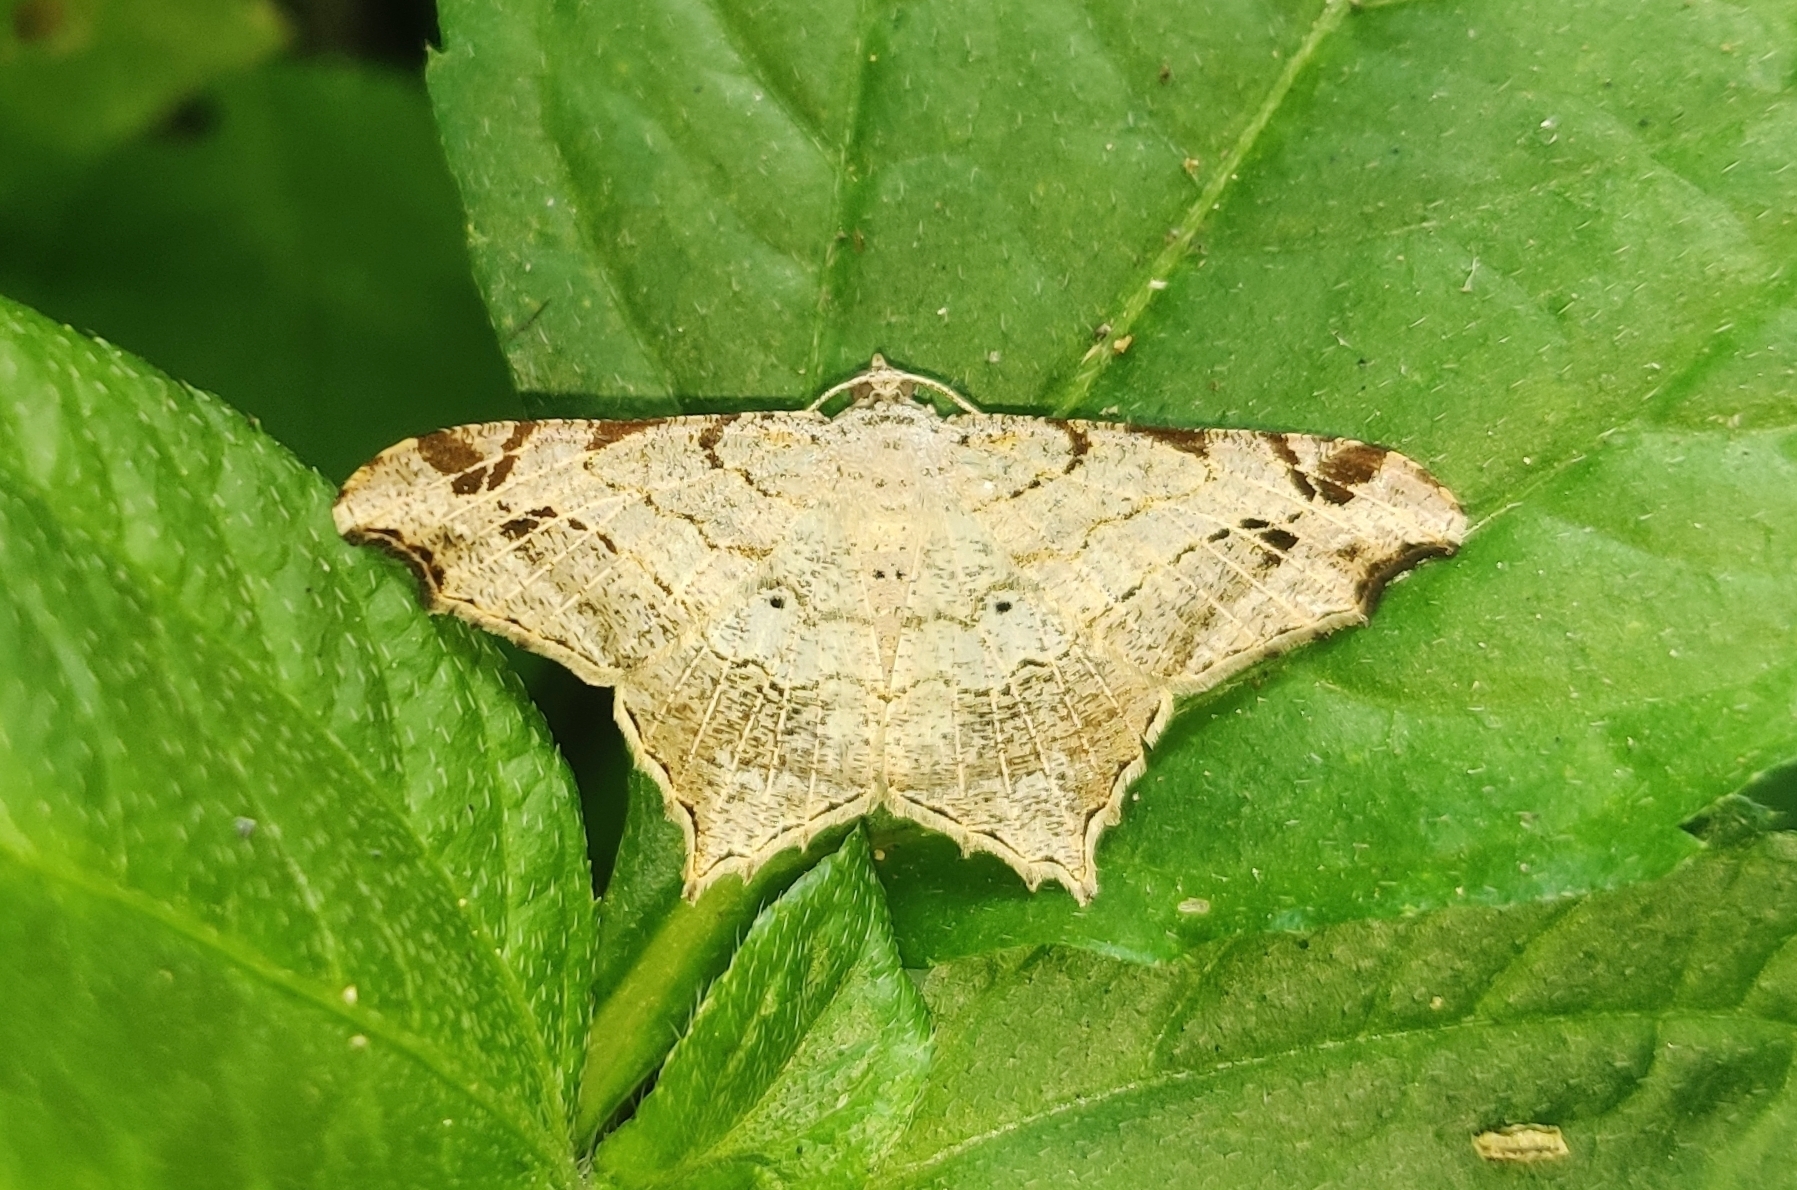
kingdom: Animalia
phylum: Arthropoda
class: Insecta
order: Lepidoptera
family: Geometridae
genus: Chiasmia
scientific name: Chiasmia emersaria
